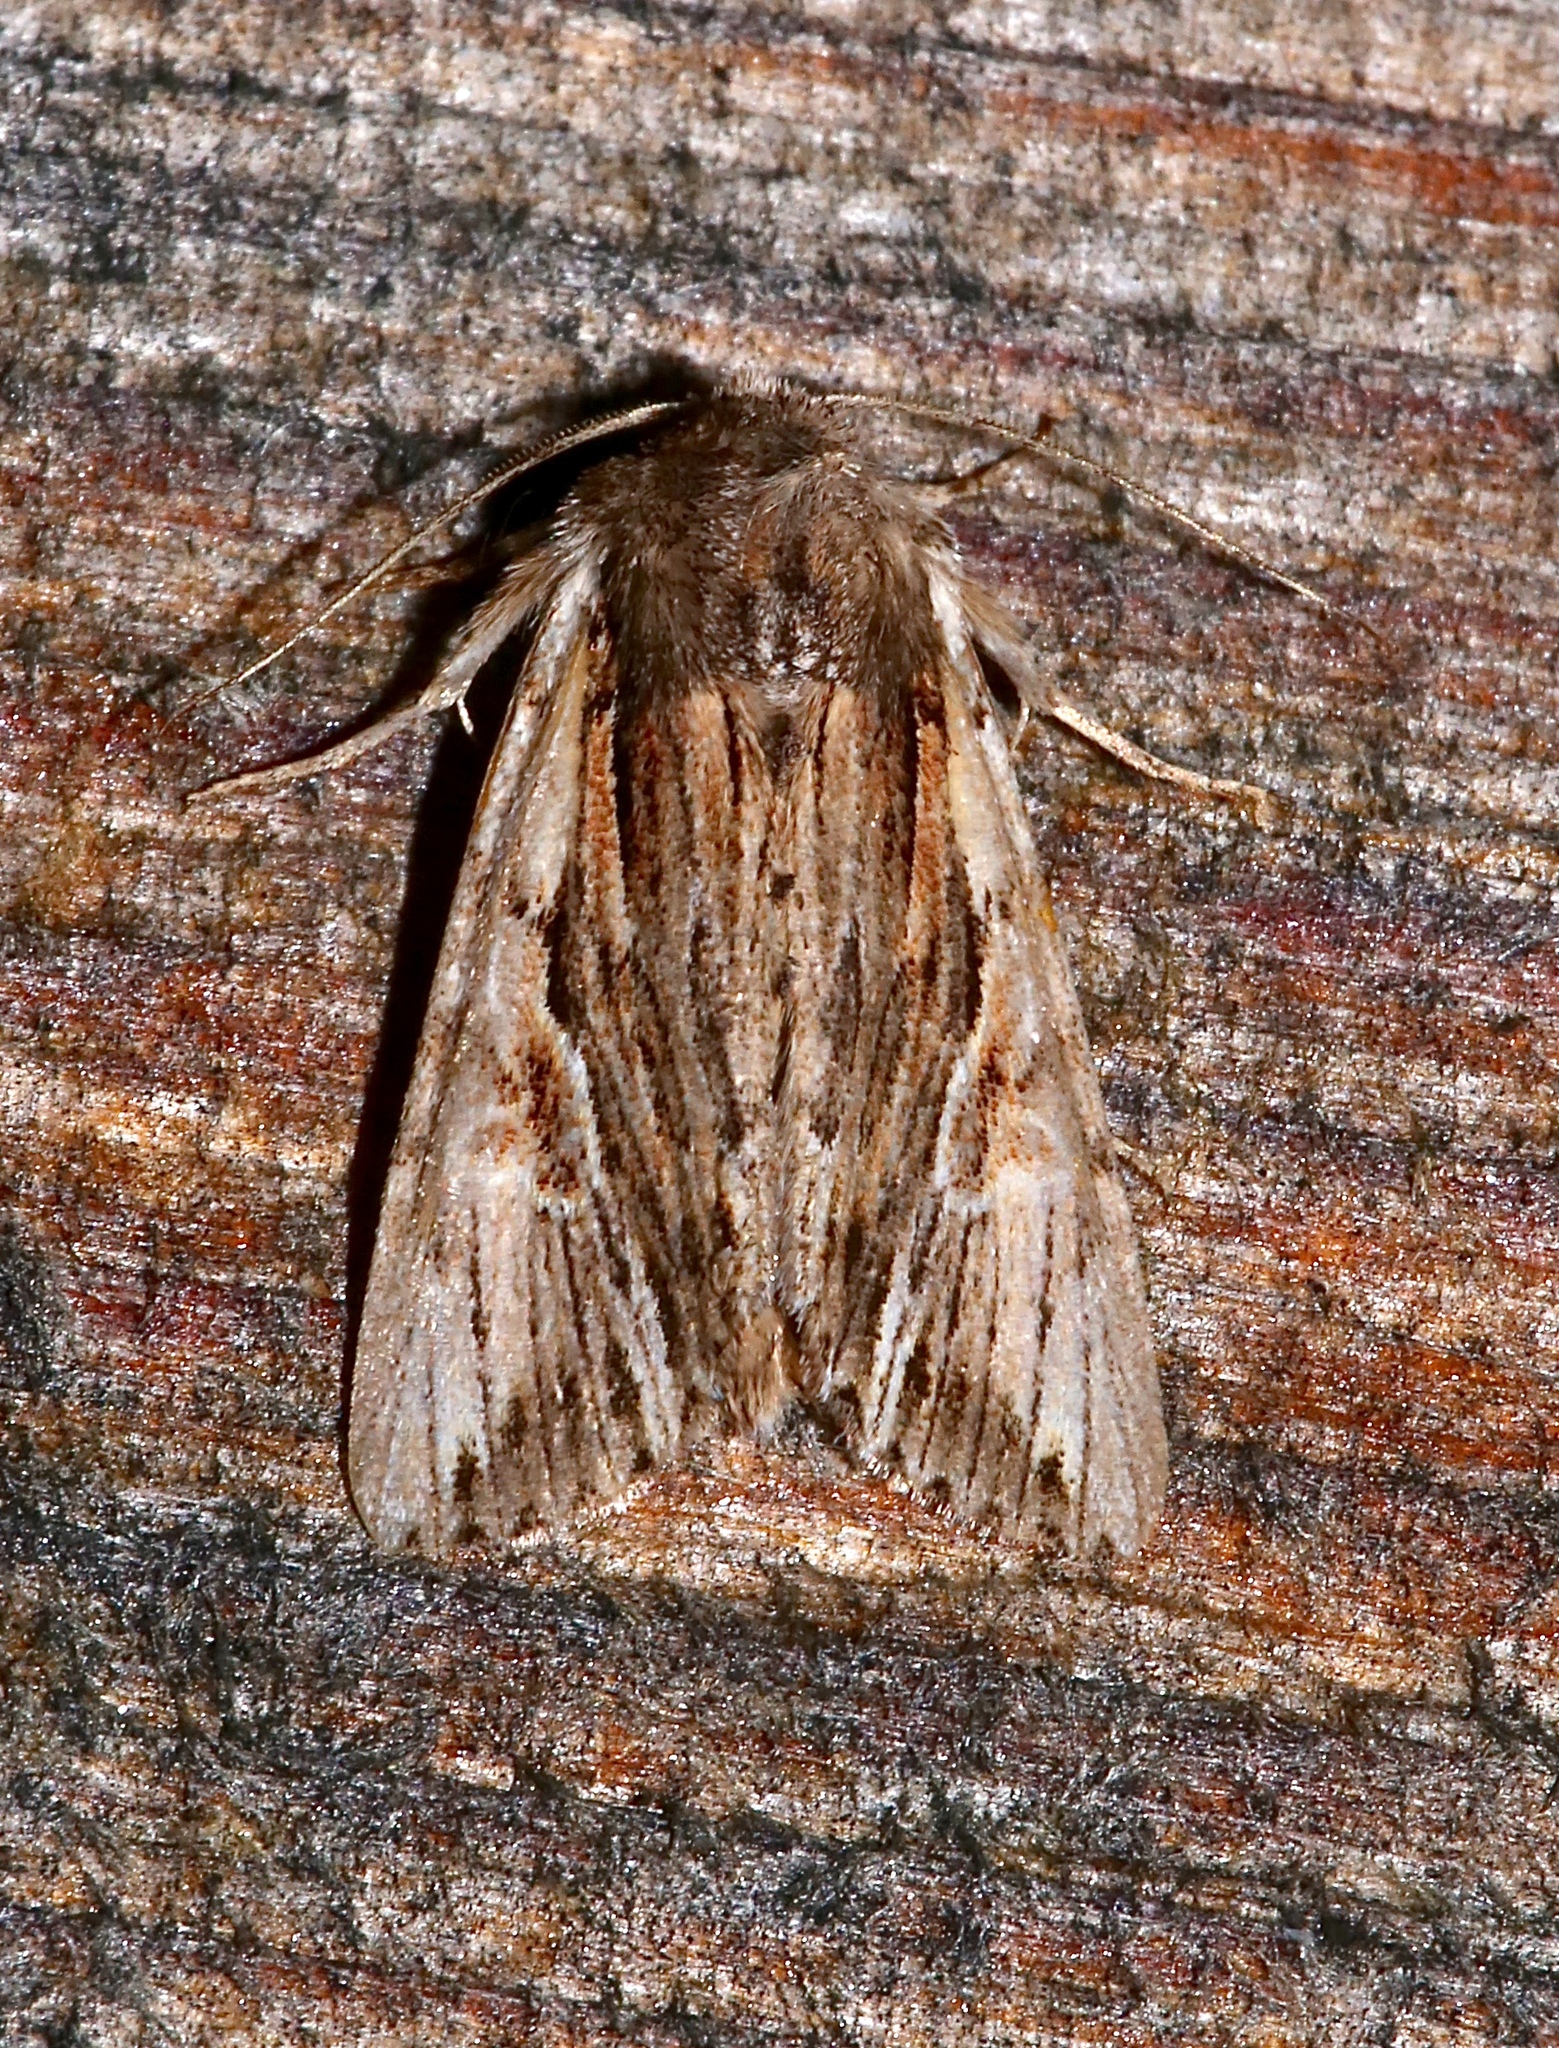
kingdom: Animalia
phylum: Arthropoda
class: Insecta
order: Lepidoptera
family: Noctuidae
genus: Achatia
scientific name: Achatia evicta
